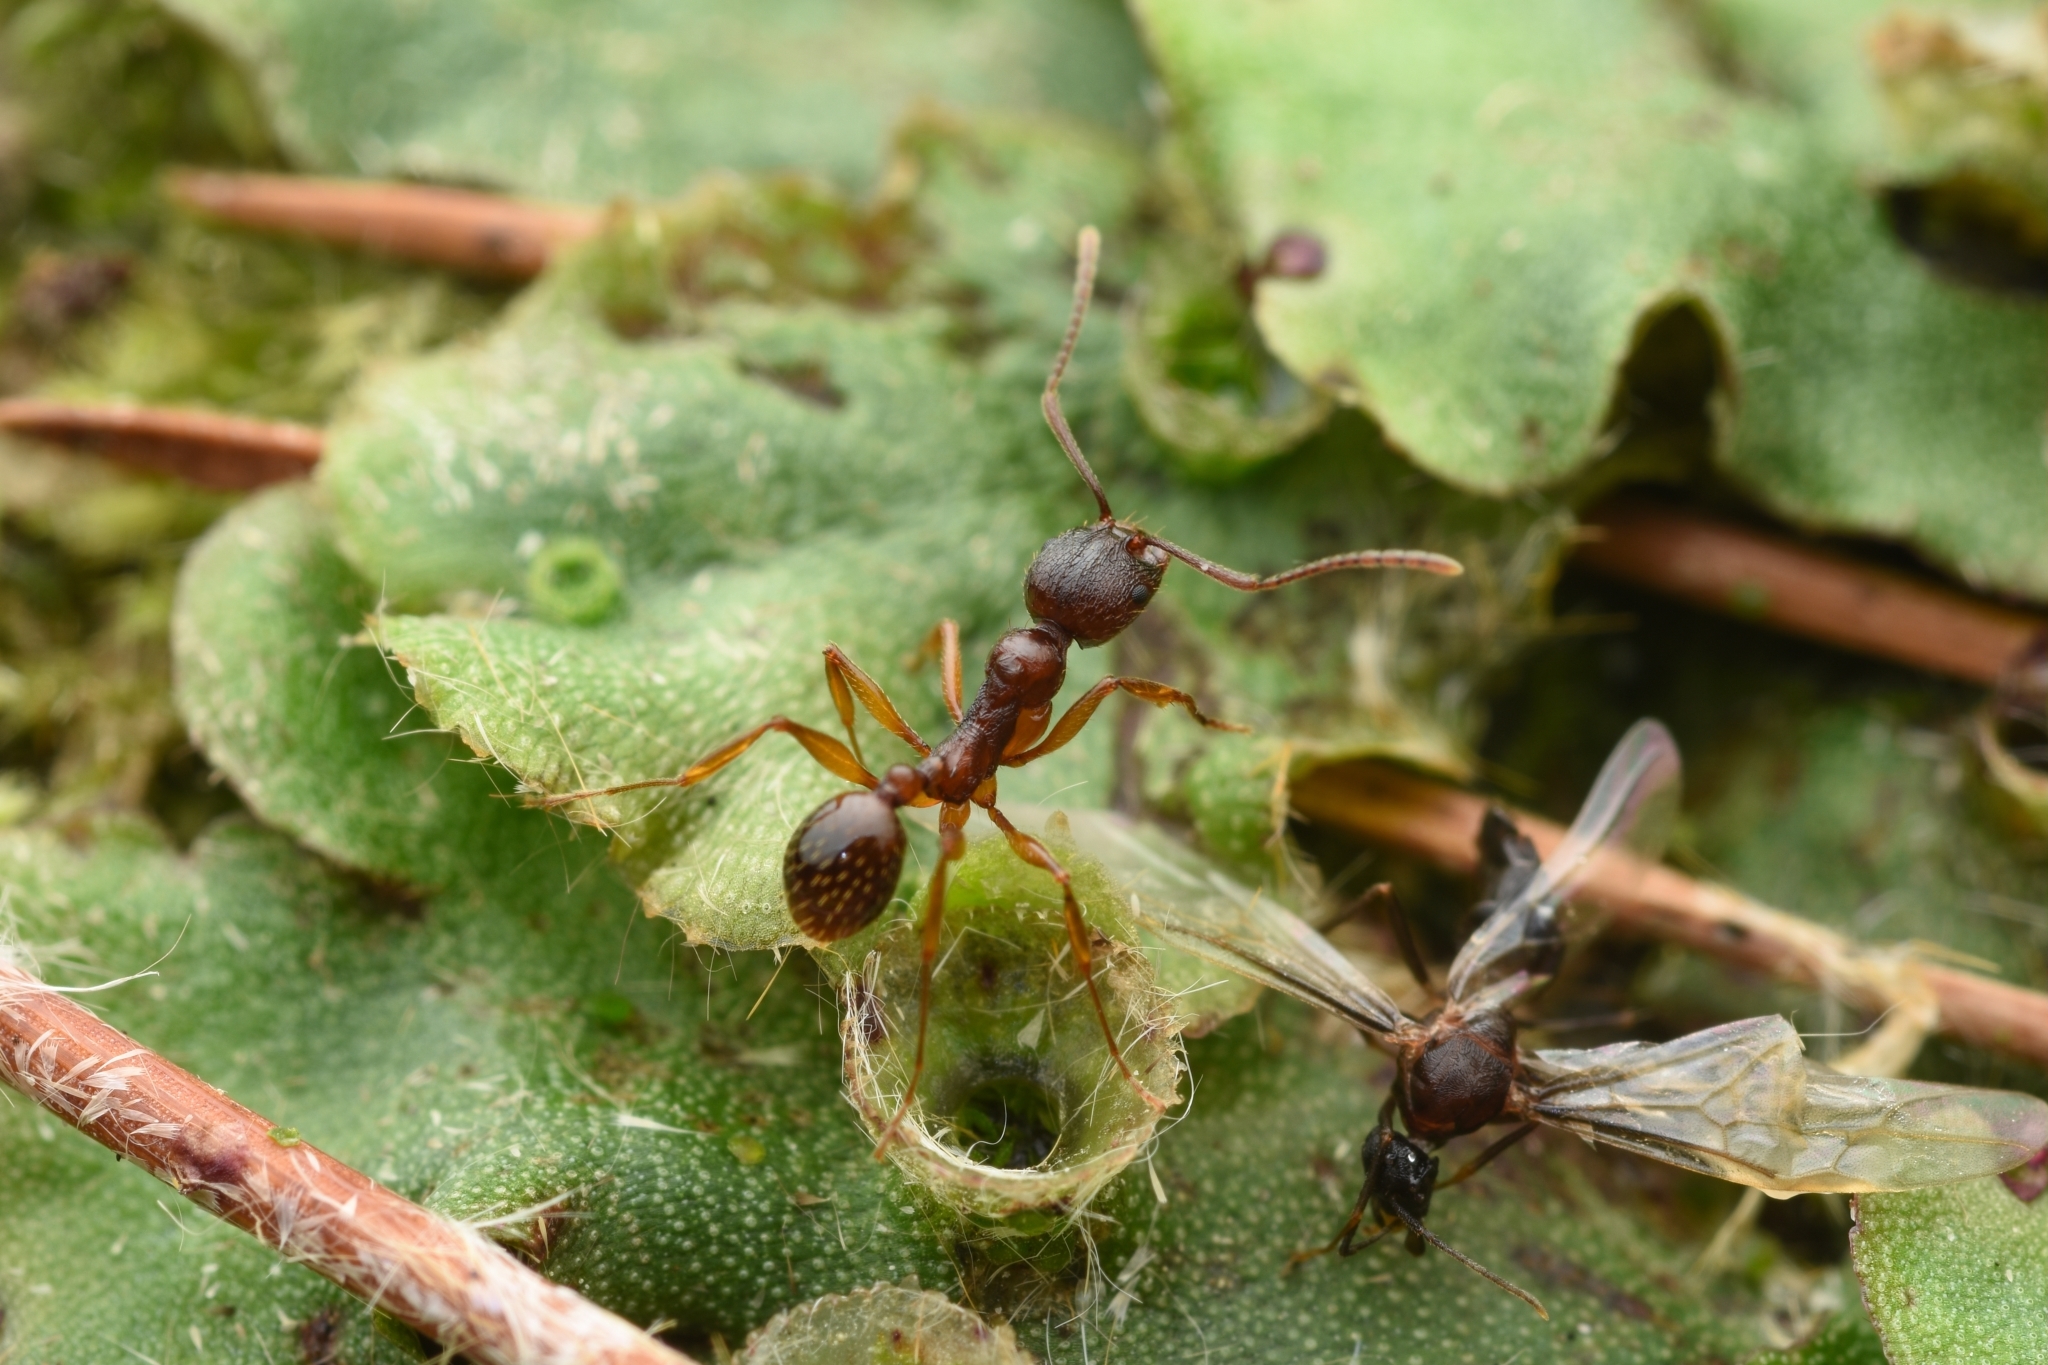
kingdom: Animalia
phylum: Arthropoda
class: Insecta
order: Hymenoptera
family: Formicidae
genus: Aphaenogaster
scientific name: Aphaenogaster japonica
